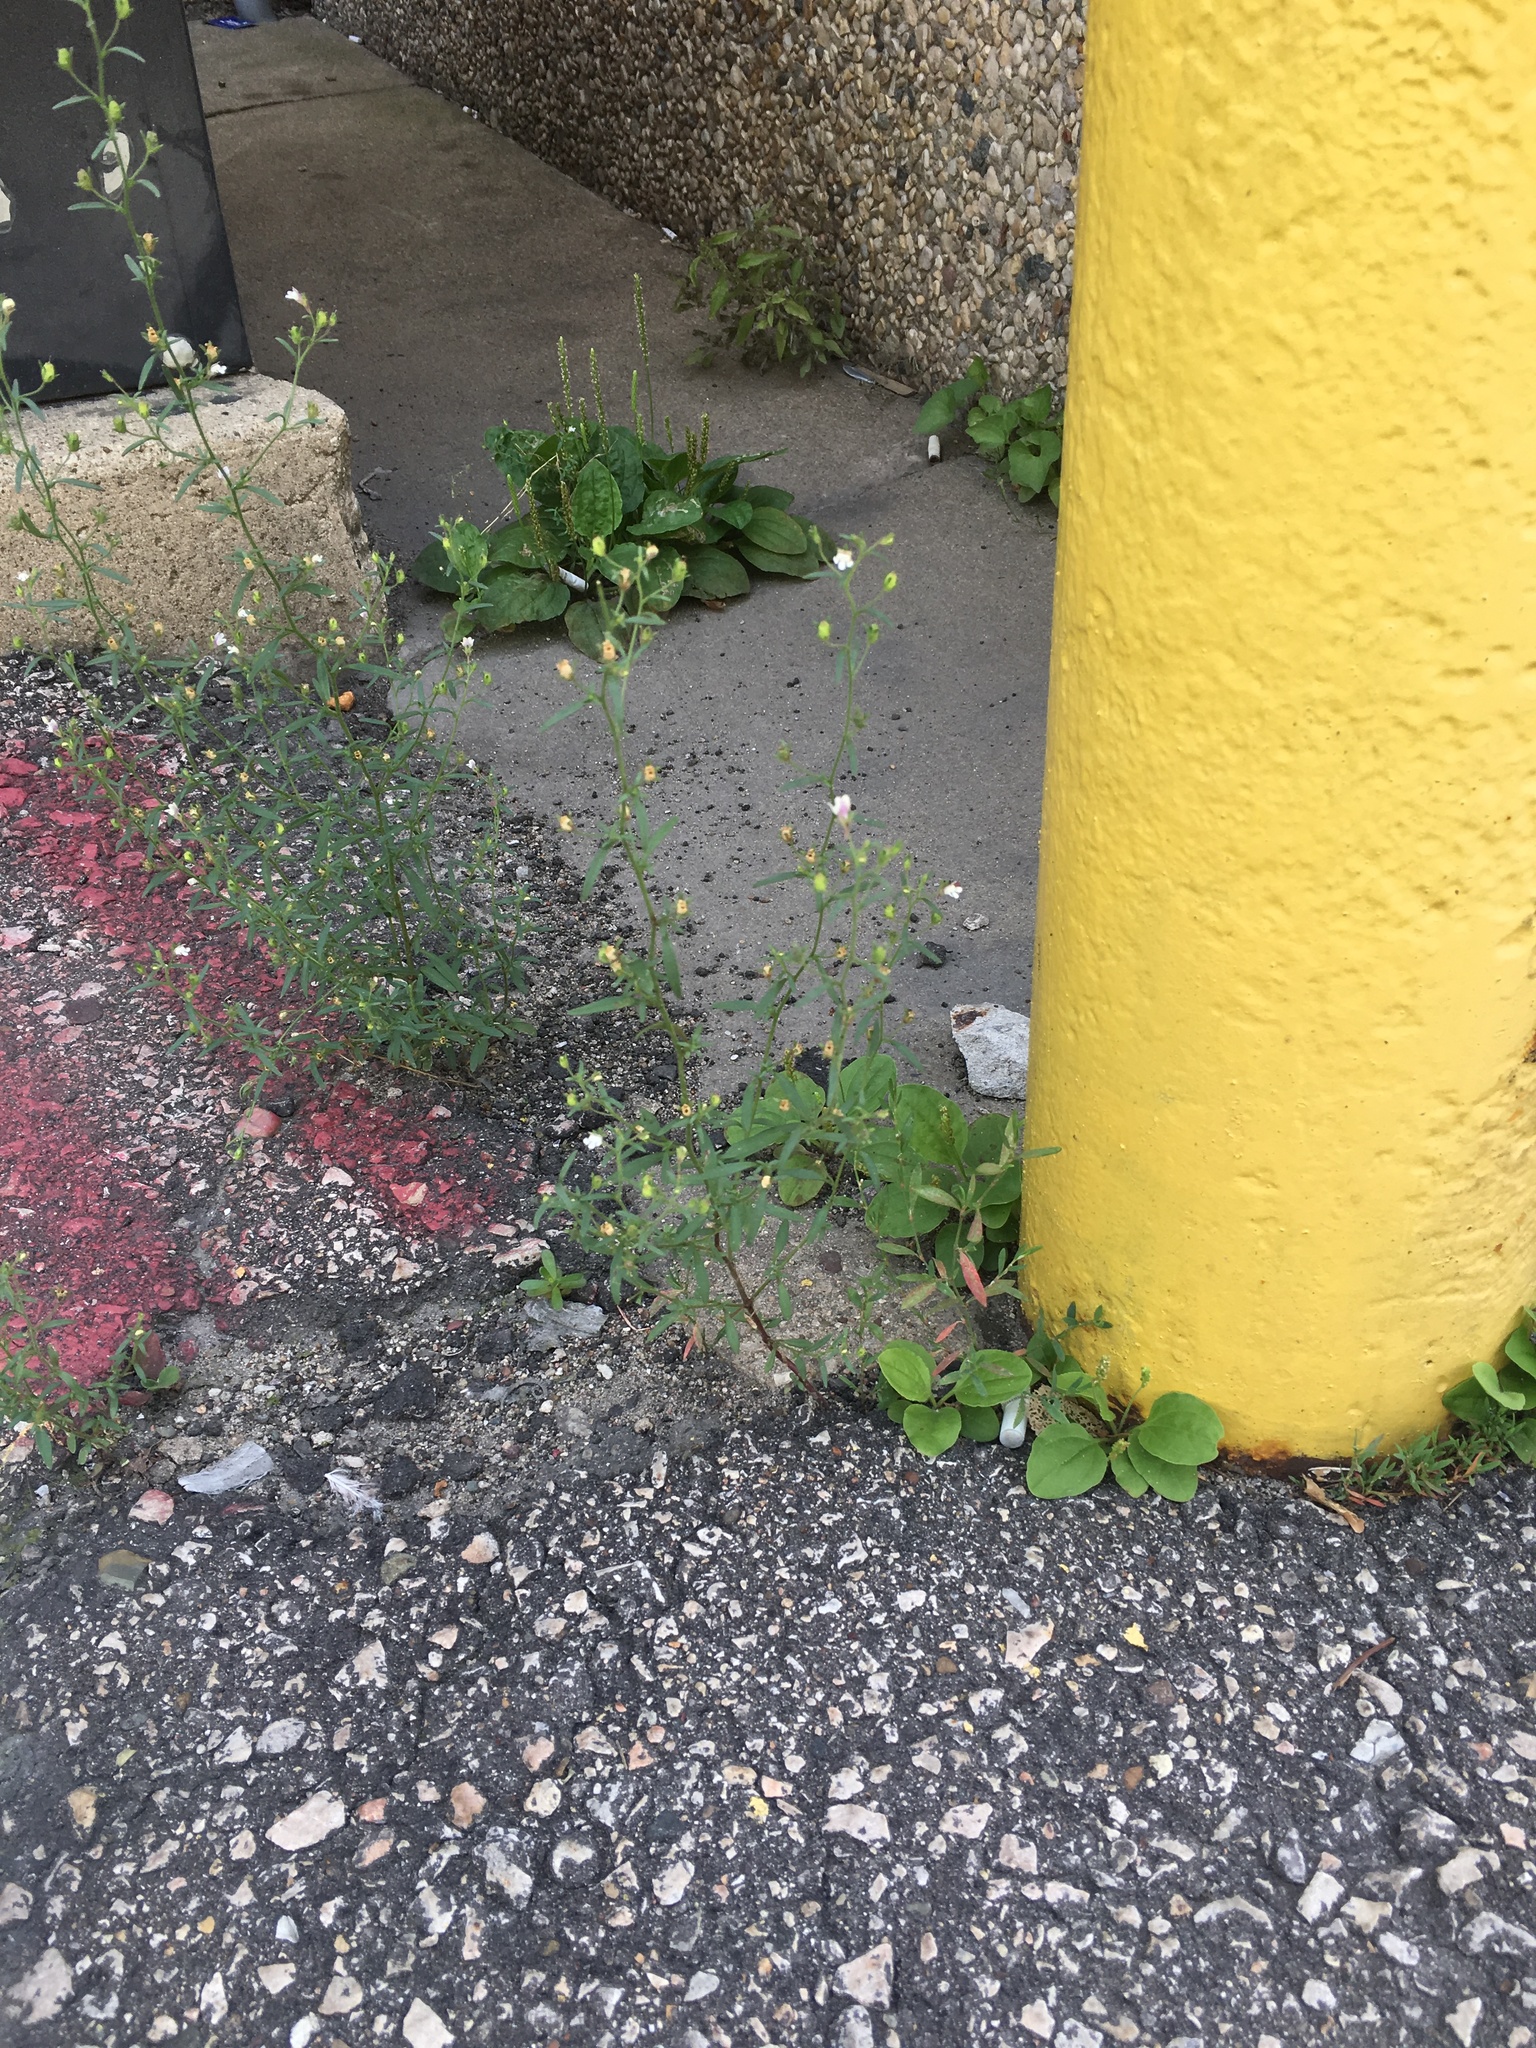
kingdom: Plantae
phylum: Tracheophyta
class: Magnoliopsida
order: Lamiales
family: Plantaginaceae
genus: Chaenorhinum
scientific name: Chaenorhinum minus
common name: Dwarf snapdragon
